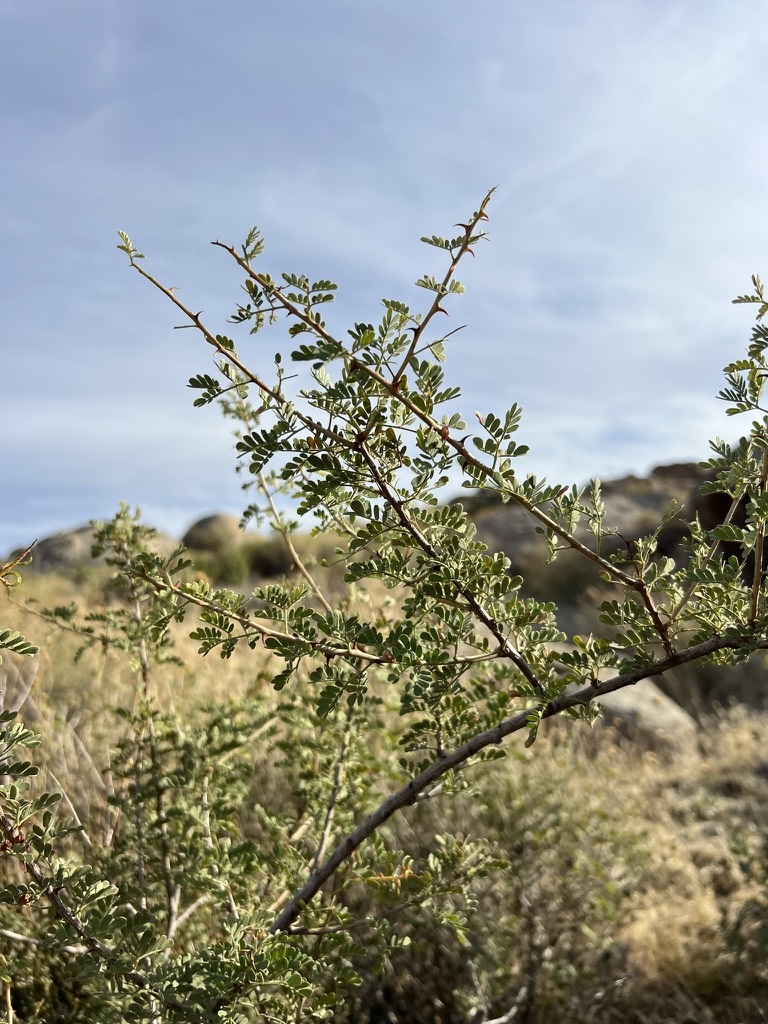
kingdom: Plantae
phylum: Tracheophyta
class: Magnoliopsida
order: Fabales
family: Fabaceae
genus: Senegalia
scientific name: Senegalia greggii
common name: Texas-mimosa
